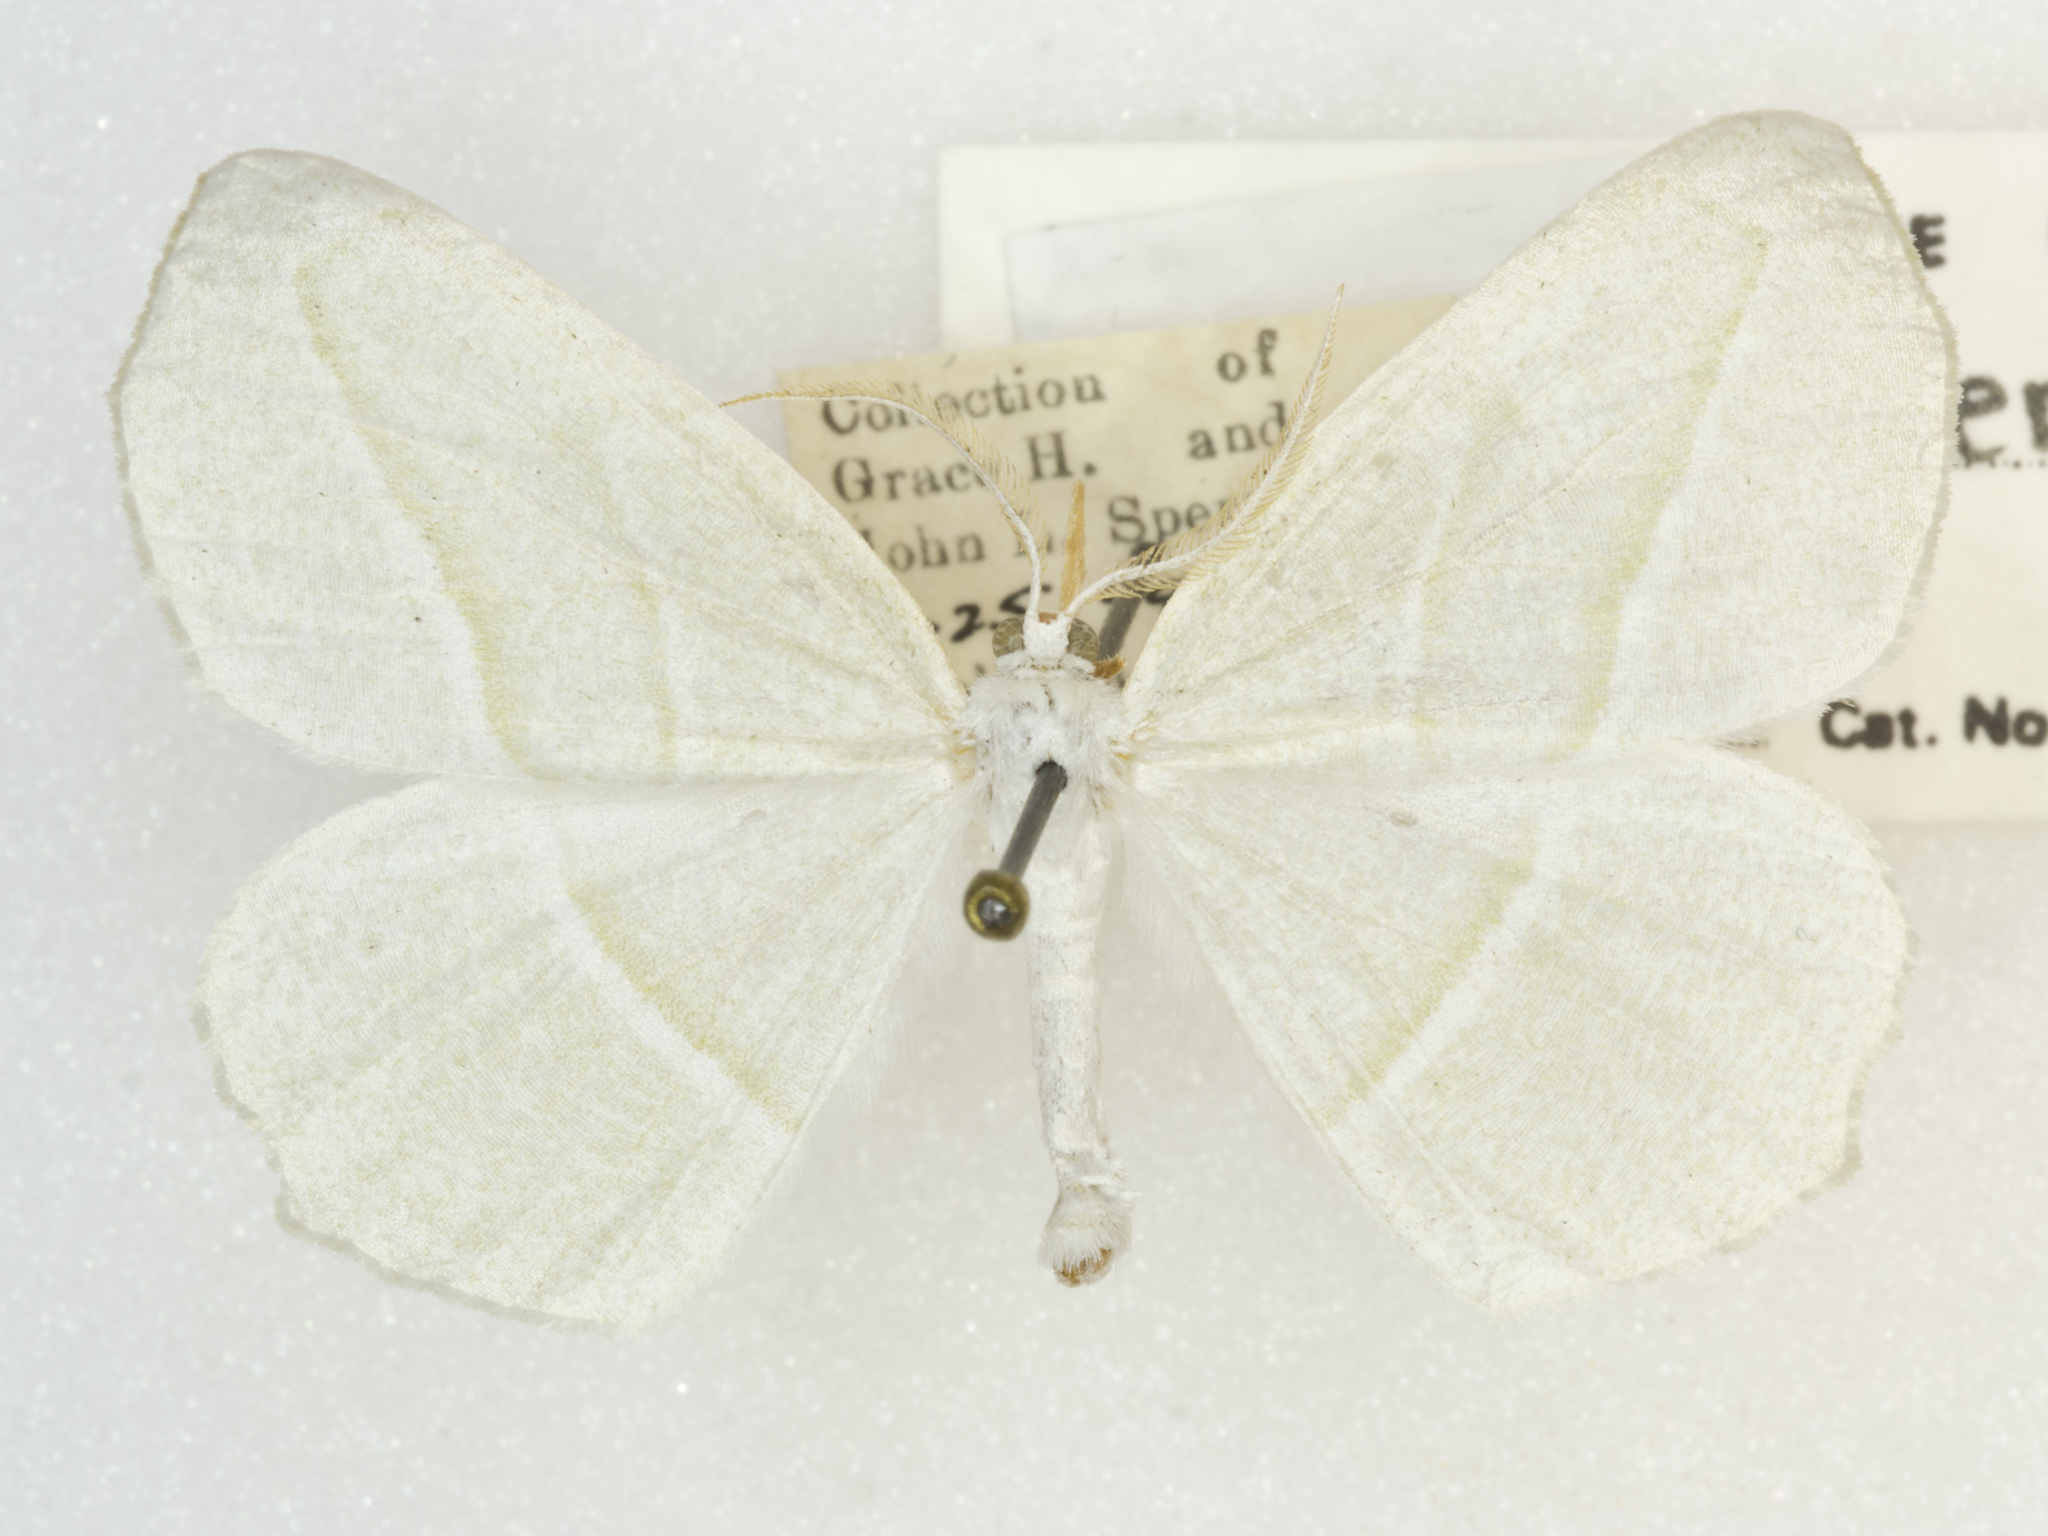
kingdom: Animalia
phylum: Arthropoda
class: Insecta
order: Lepidoptera
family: Geometridae
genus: Campaea
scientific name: Campaea perlata
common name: Fringed looper
